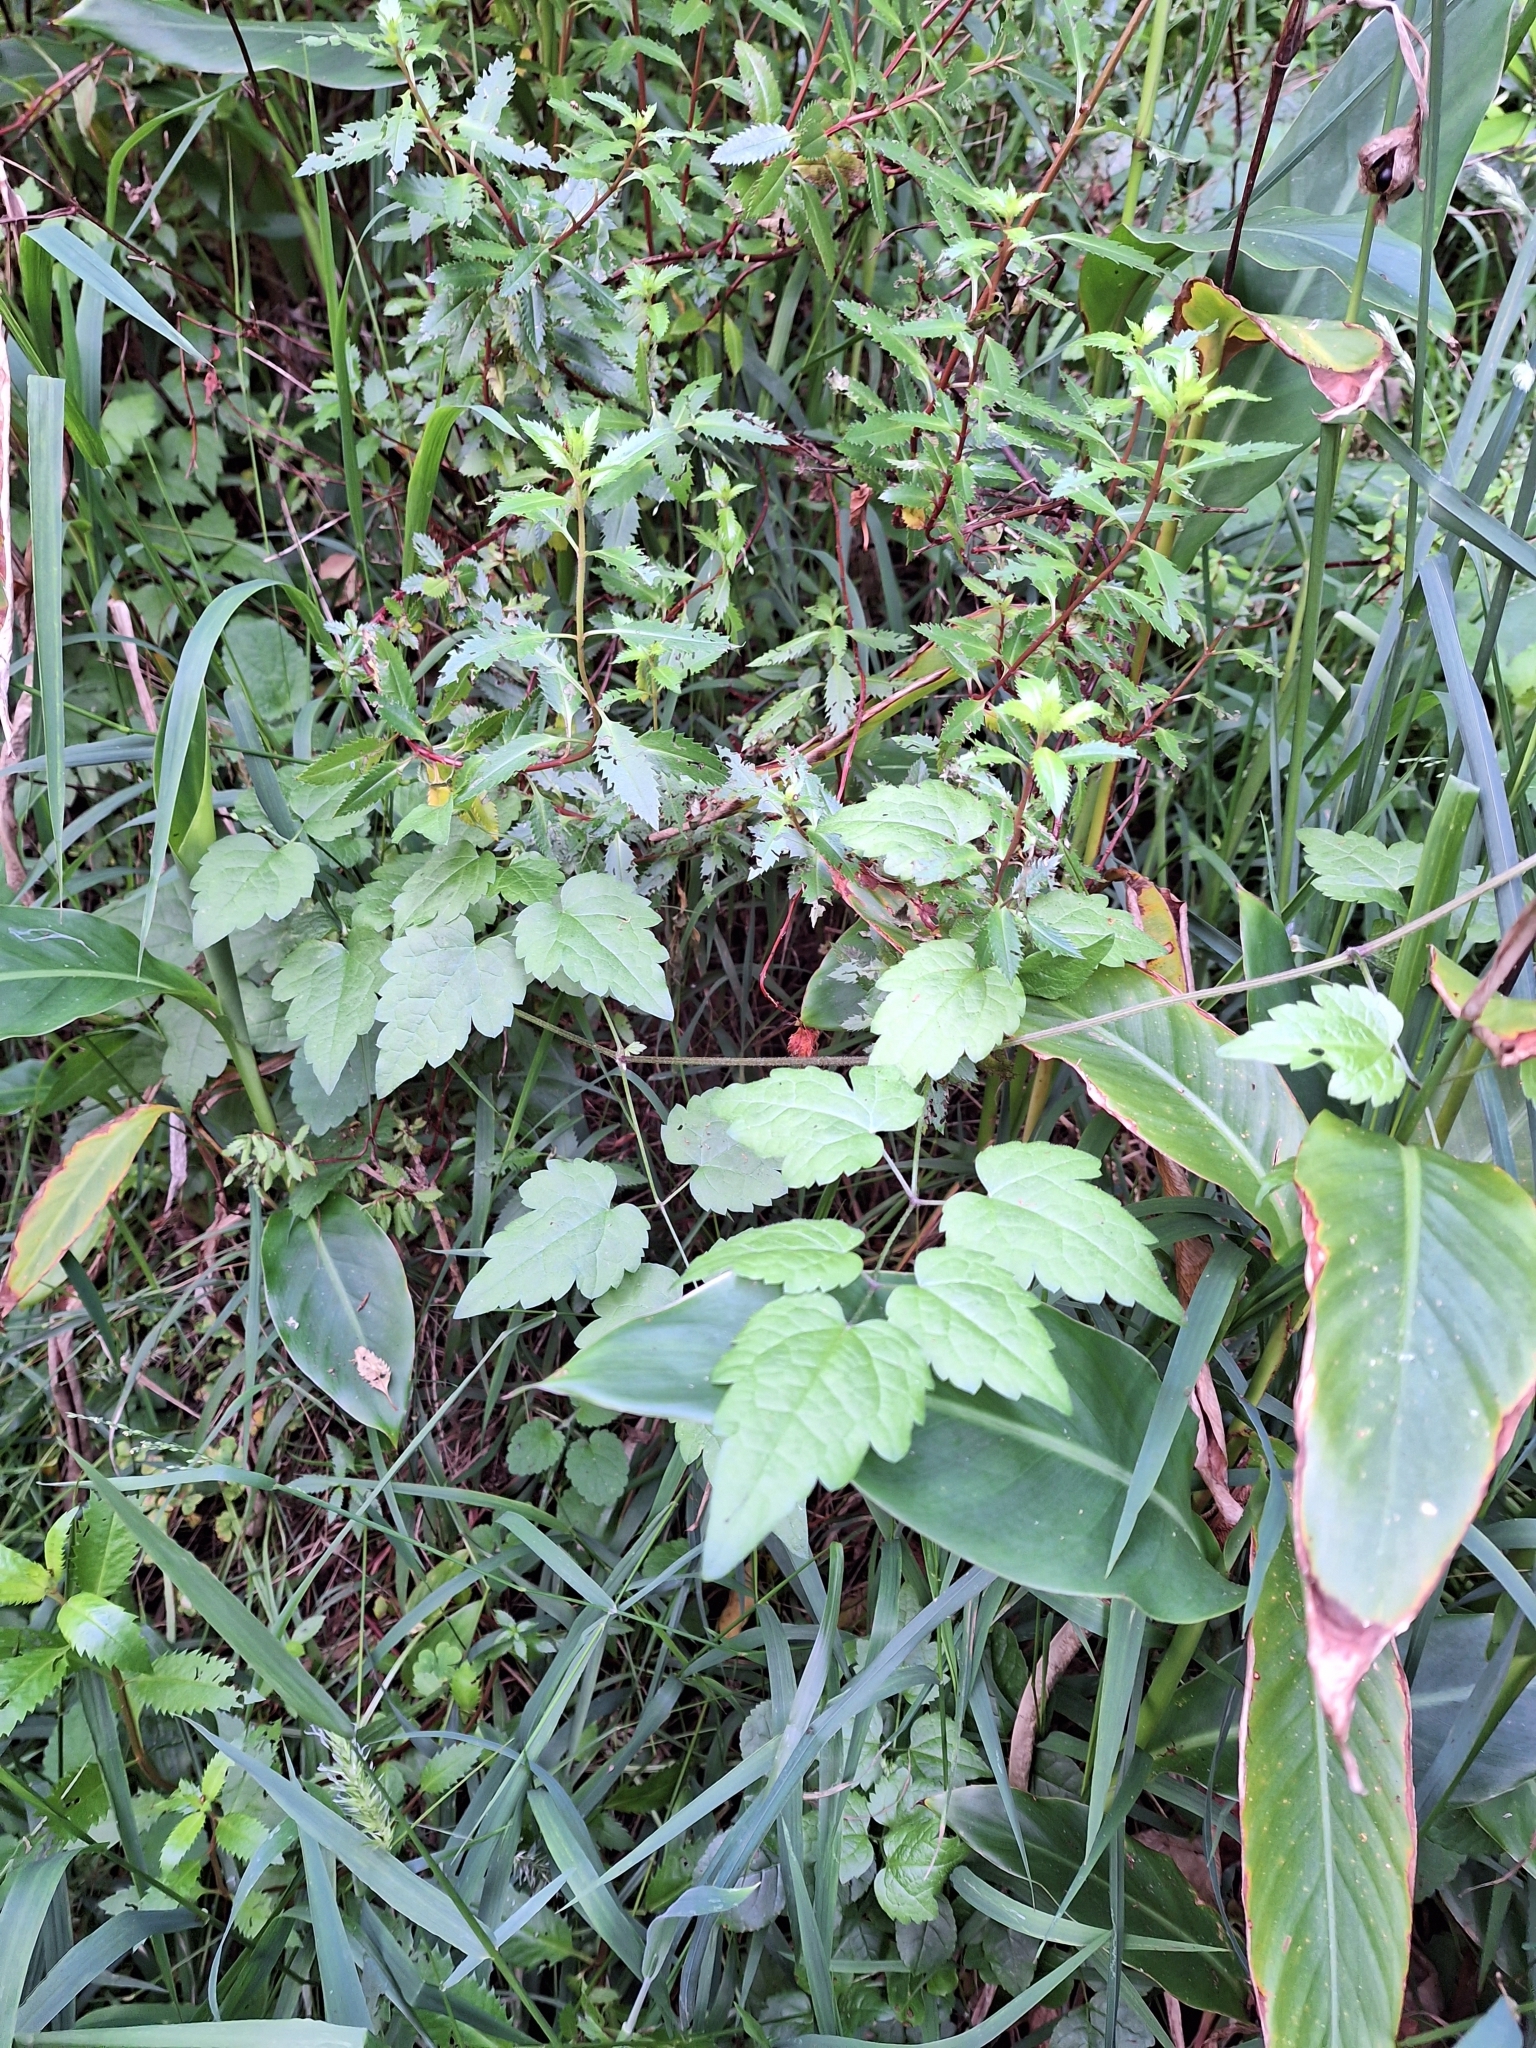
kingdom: Plantae
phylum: Tracheophyta
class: Magnoliopsida
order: Ranunculales
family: Ranunculaceae
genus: Clematis
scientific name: Clematis vitalba
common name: Evergreen clematis
